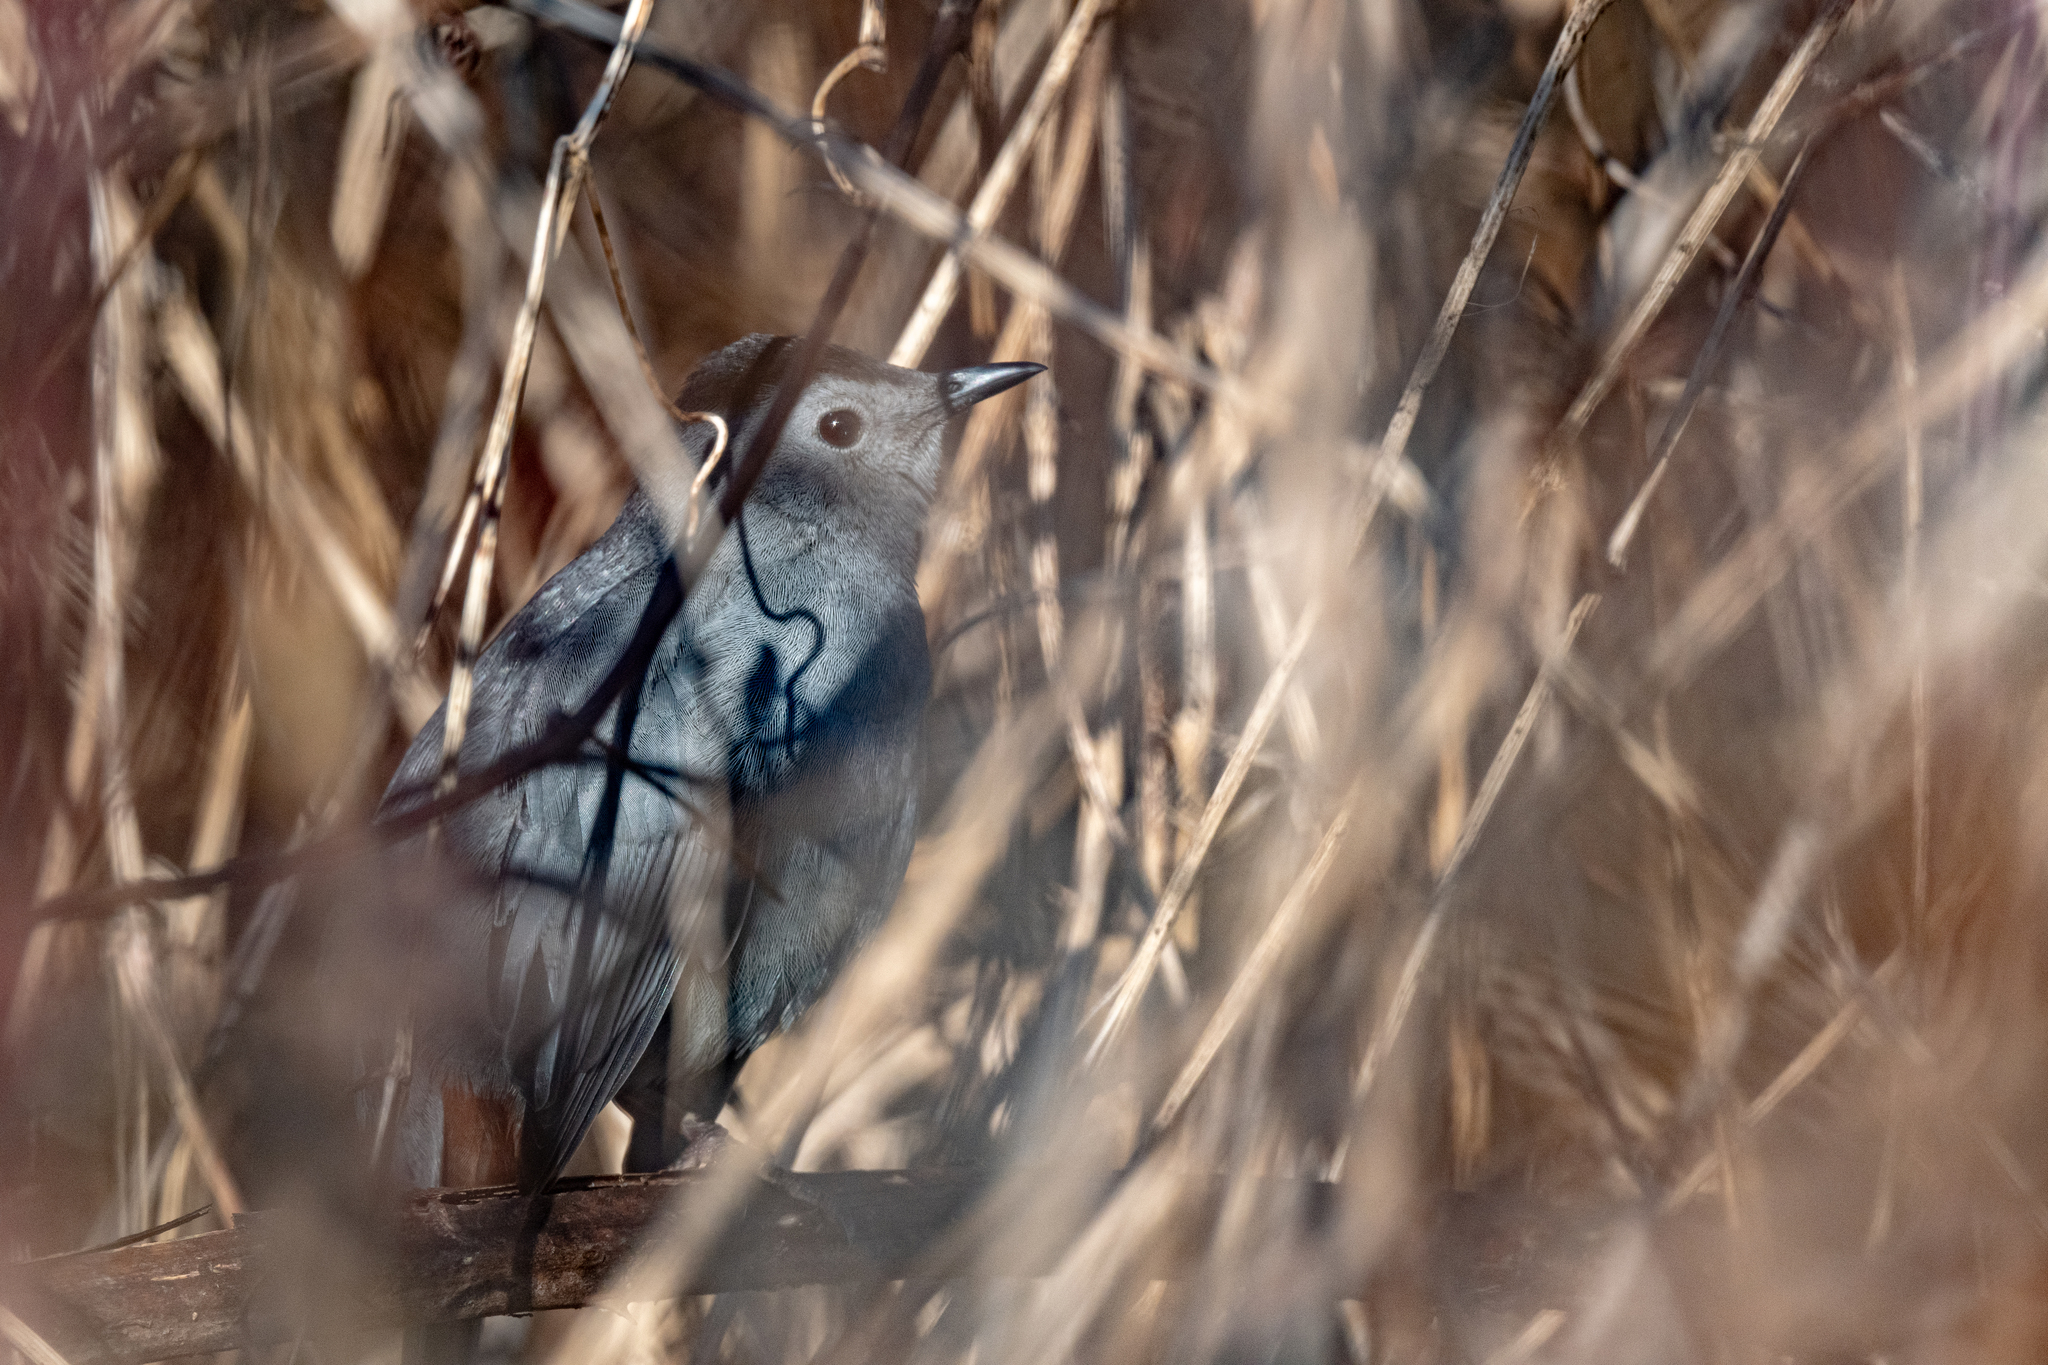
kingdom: Animalia
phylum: Chordata
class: Aves
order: Passeriformes
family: Mimidae
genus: Dumetella
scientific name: Dumetella carolinensis
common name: Gray catbird
